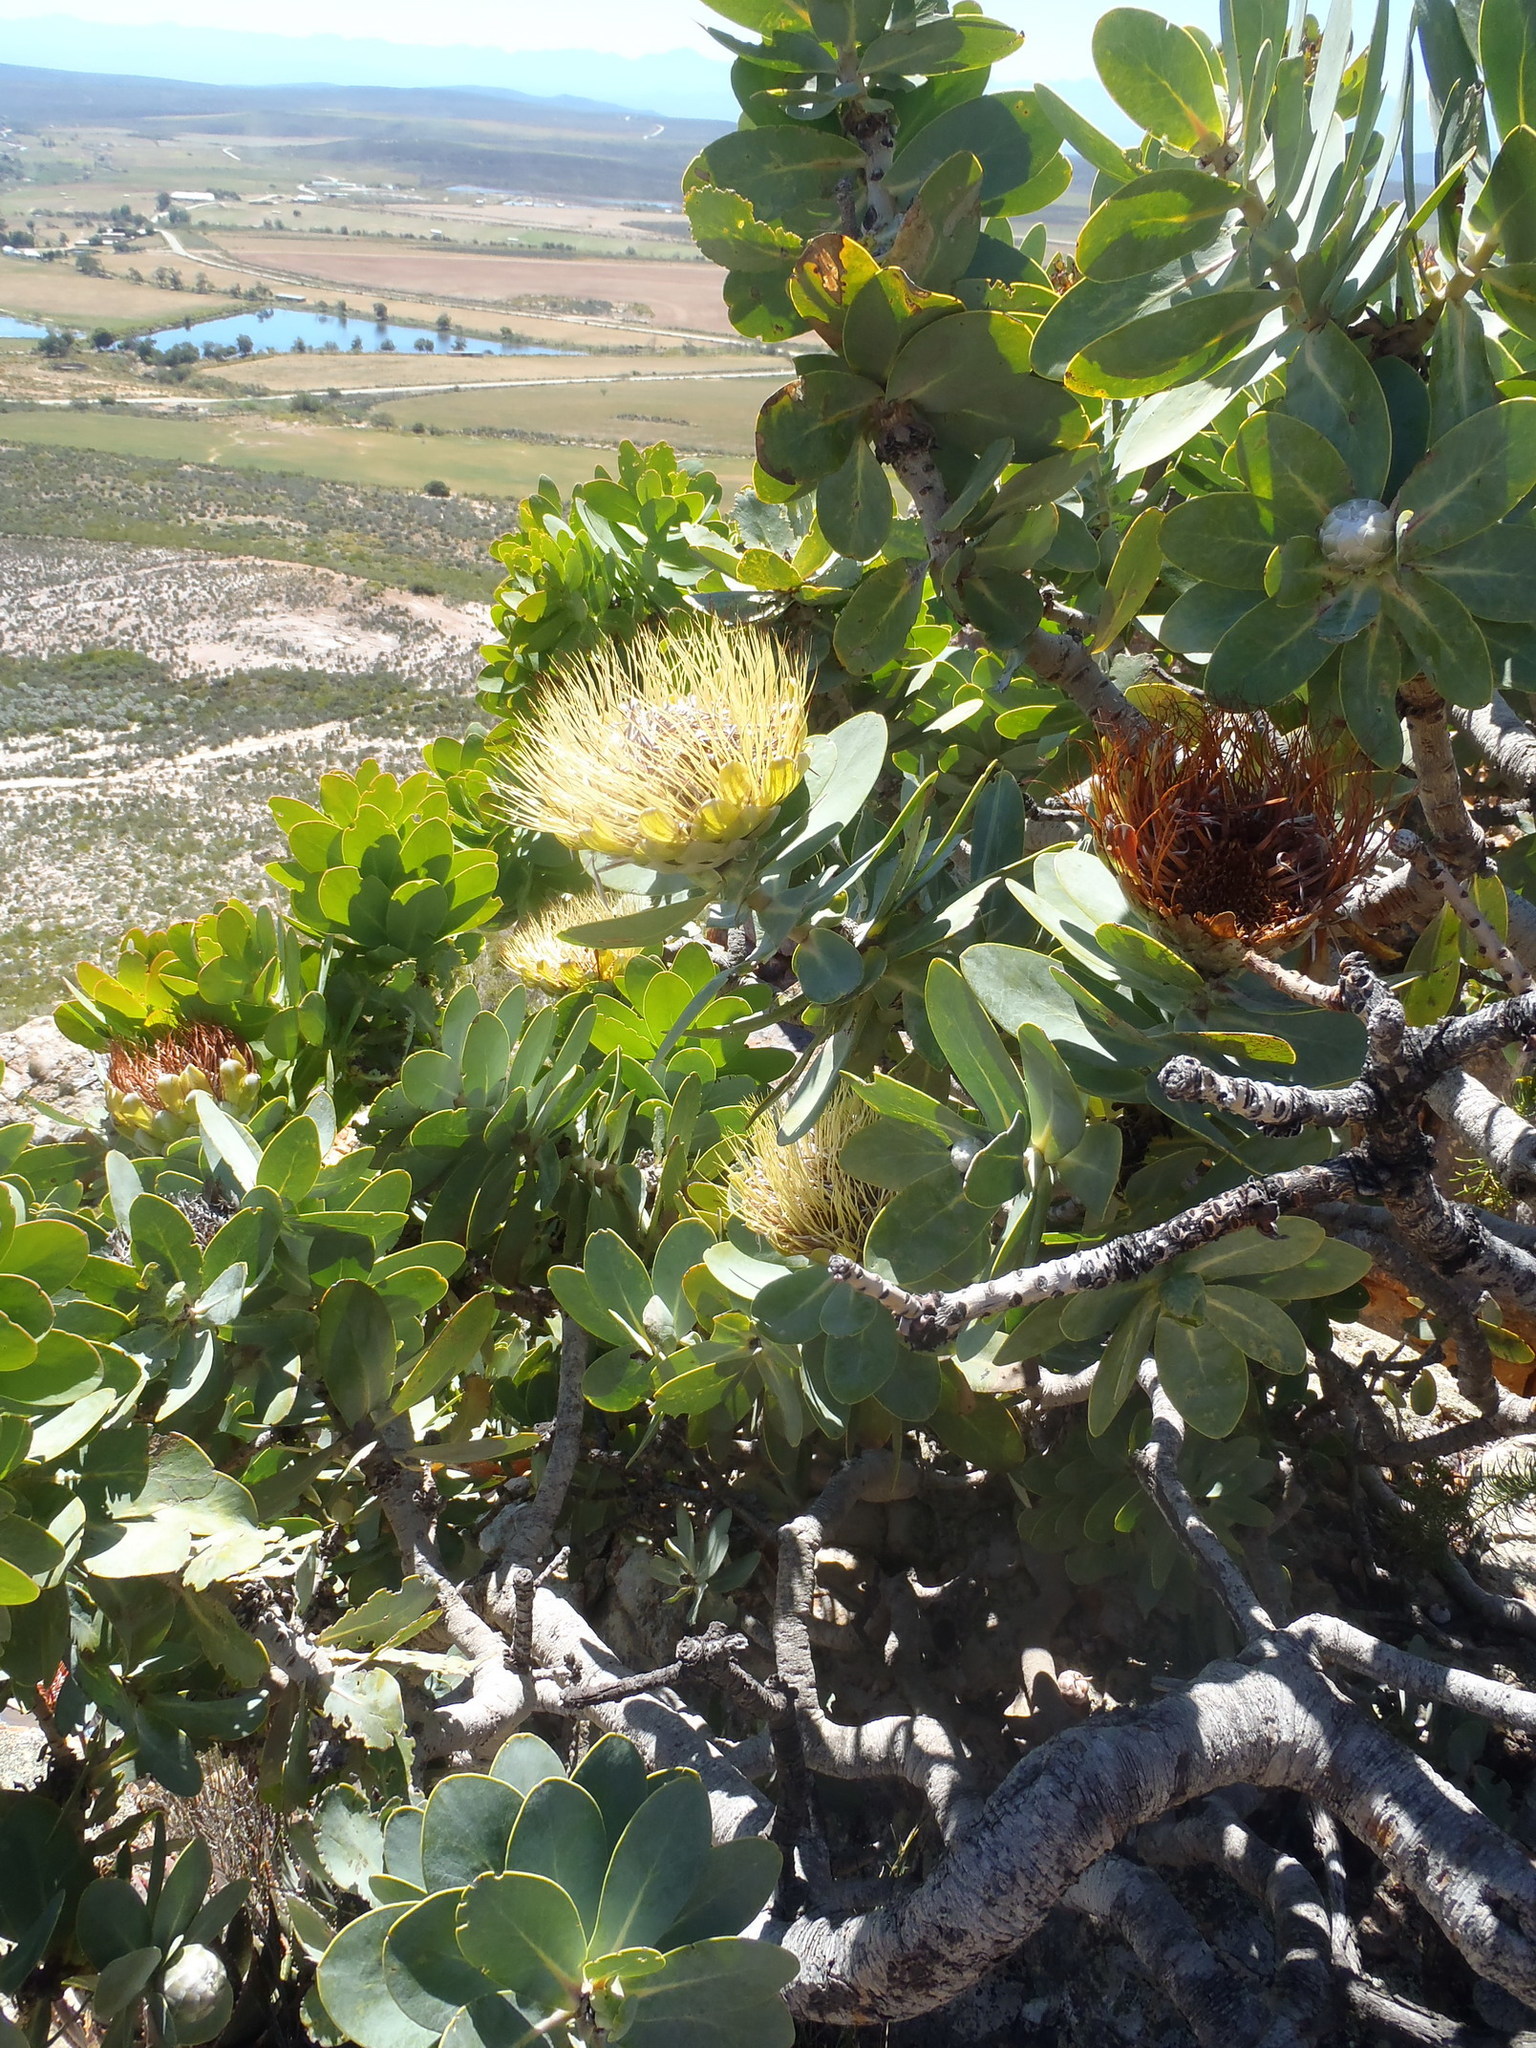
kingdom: Plantae
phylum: Tracheophyta
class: Magnoliopsida
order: Proteales
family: Proteaceae
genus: Protea
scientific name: Protea nitida
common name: Tree protea
